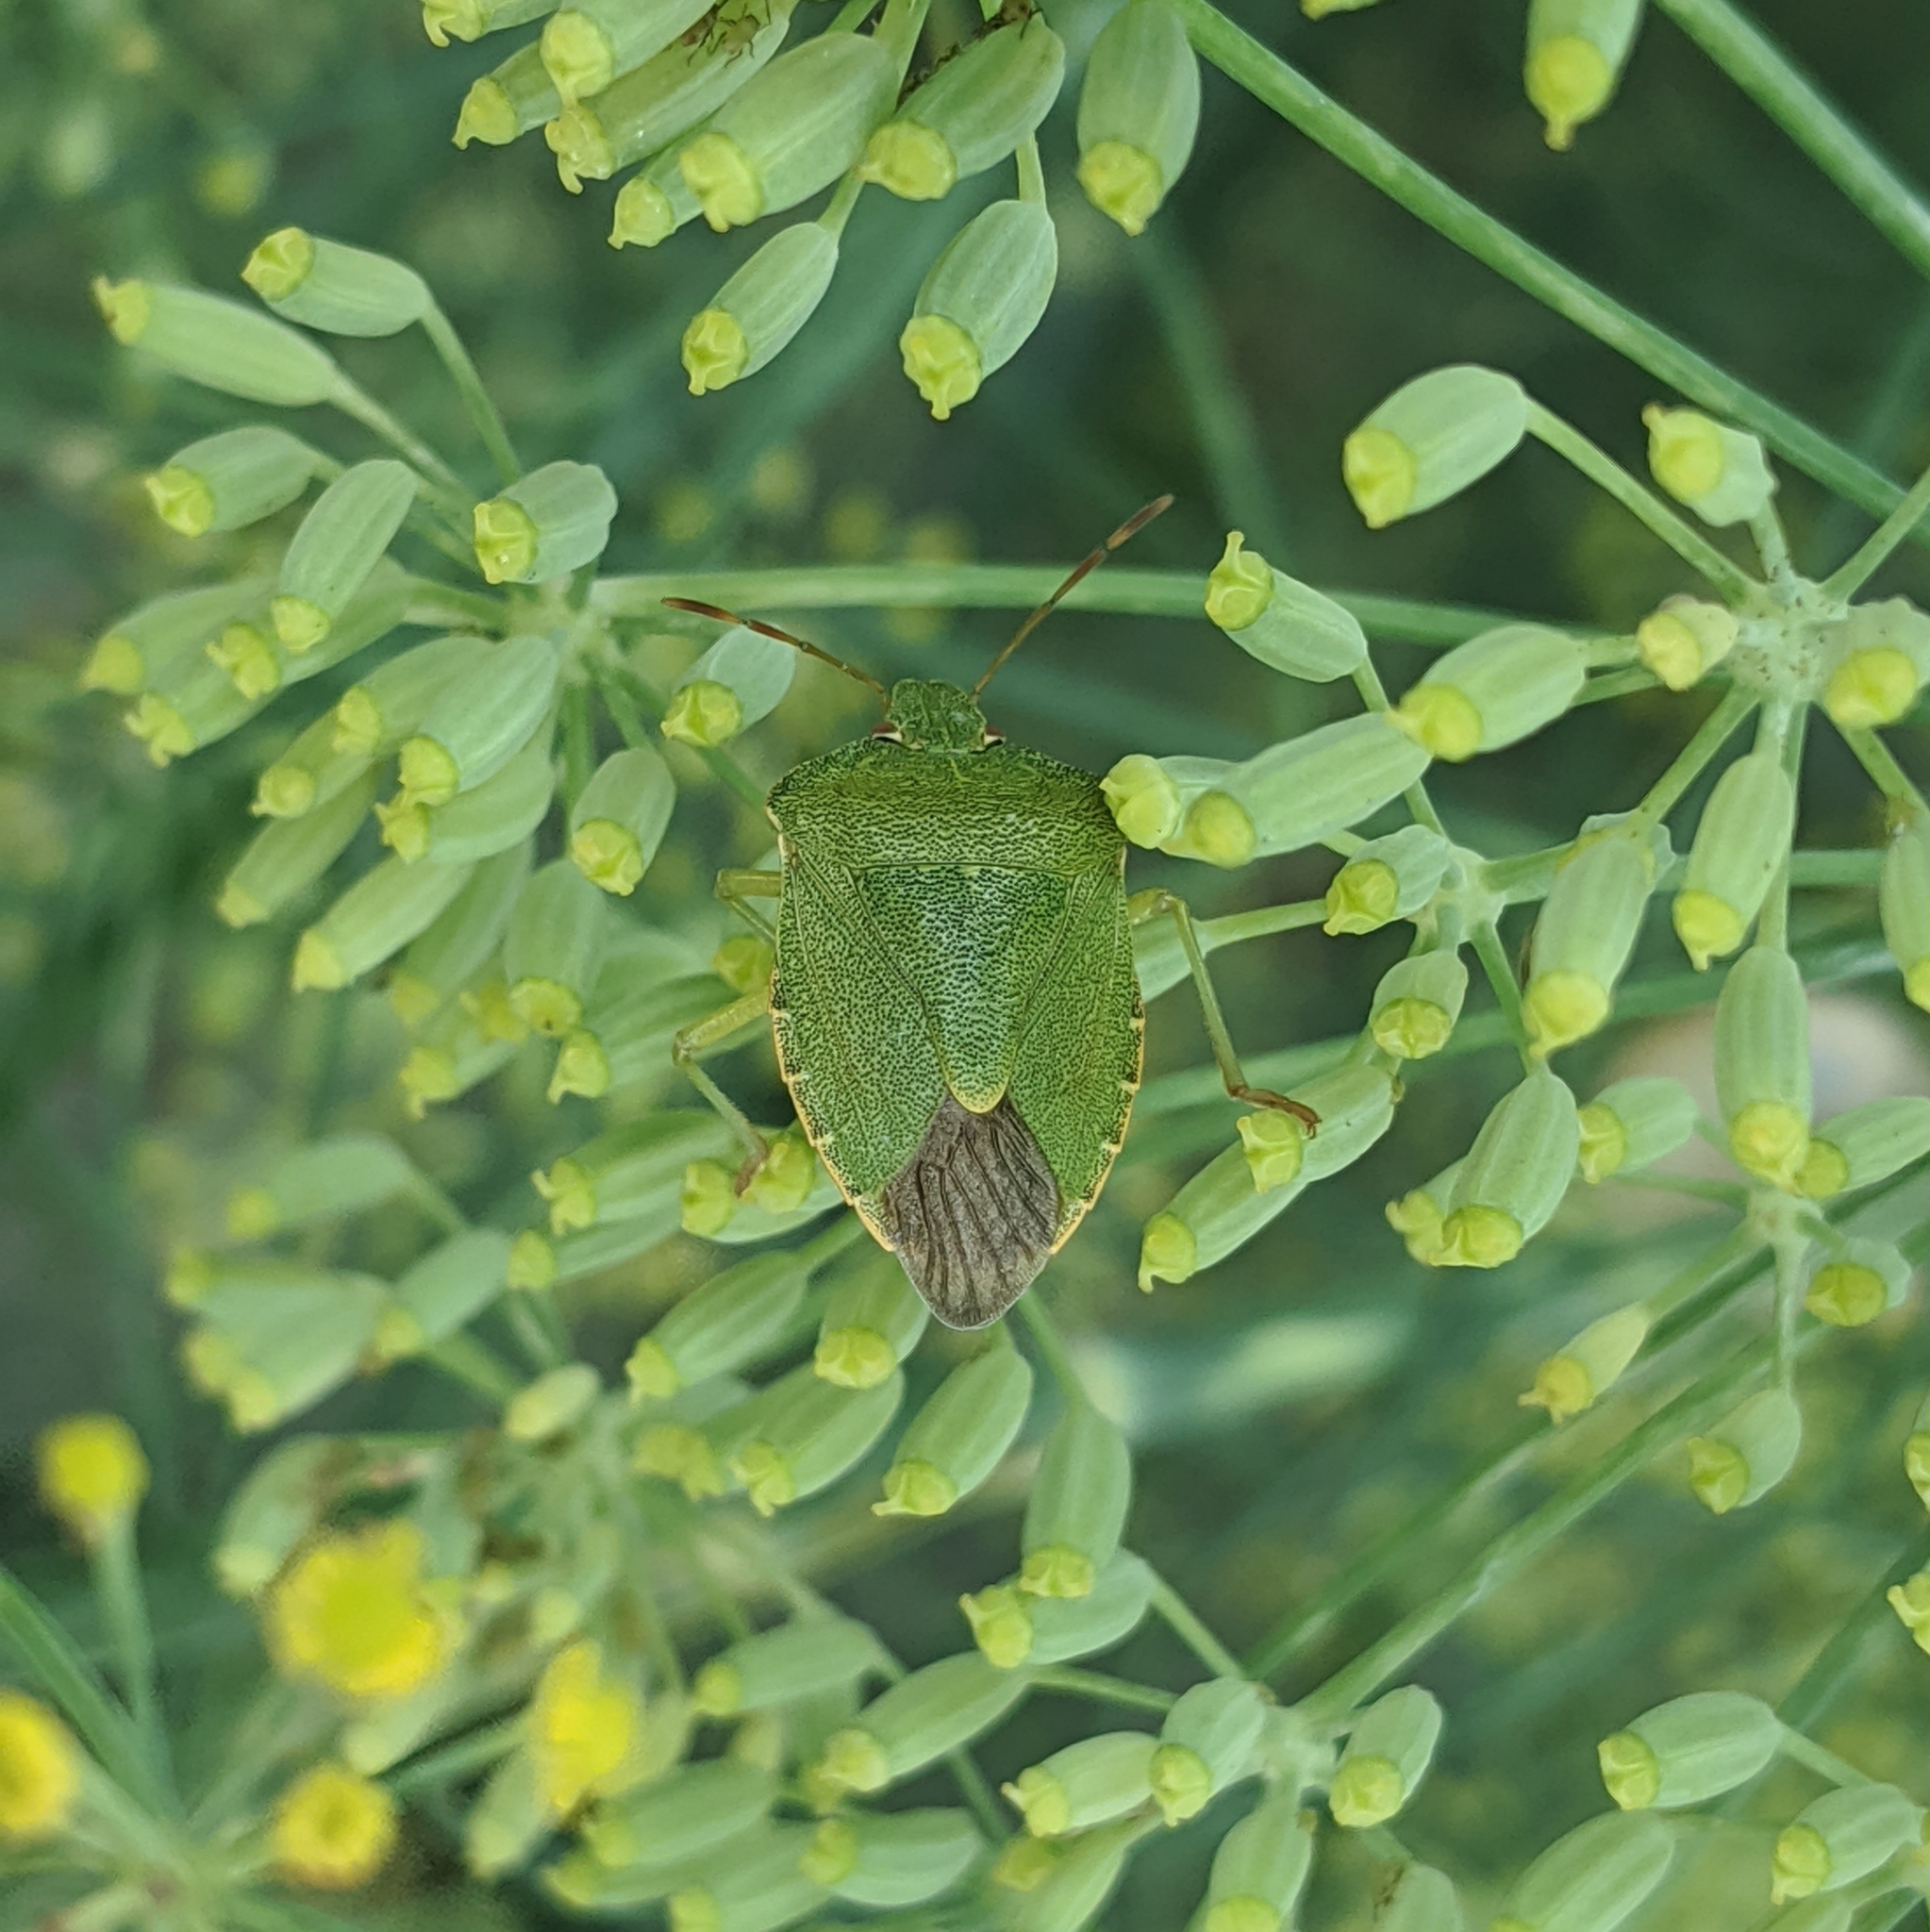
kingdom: Animalia
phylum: Arthropoda
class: Insecta
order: Hemiptera
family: Pentatomidae
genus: Palomena
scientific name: Palomena prasina
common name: Green shieldbug
